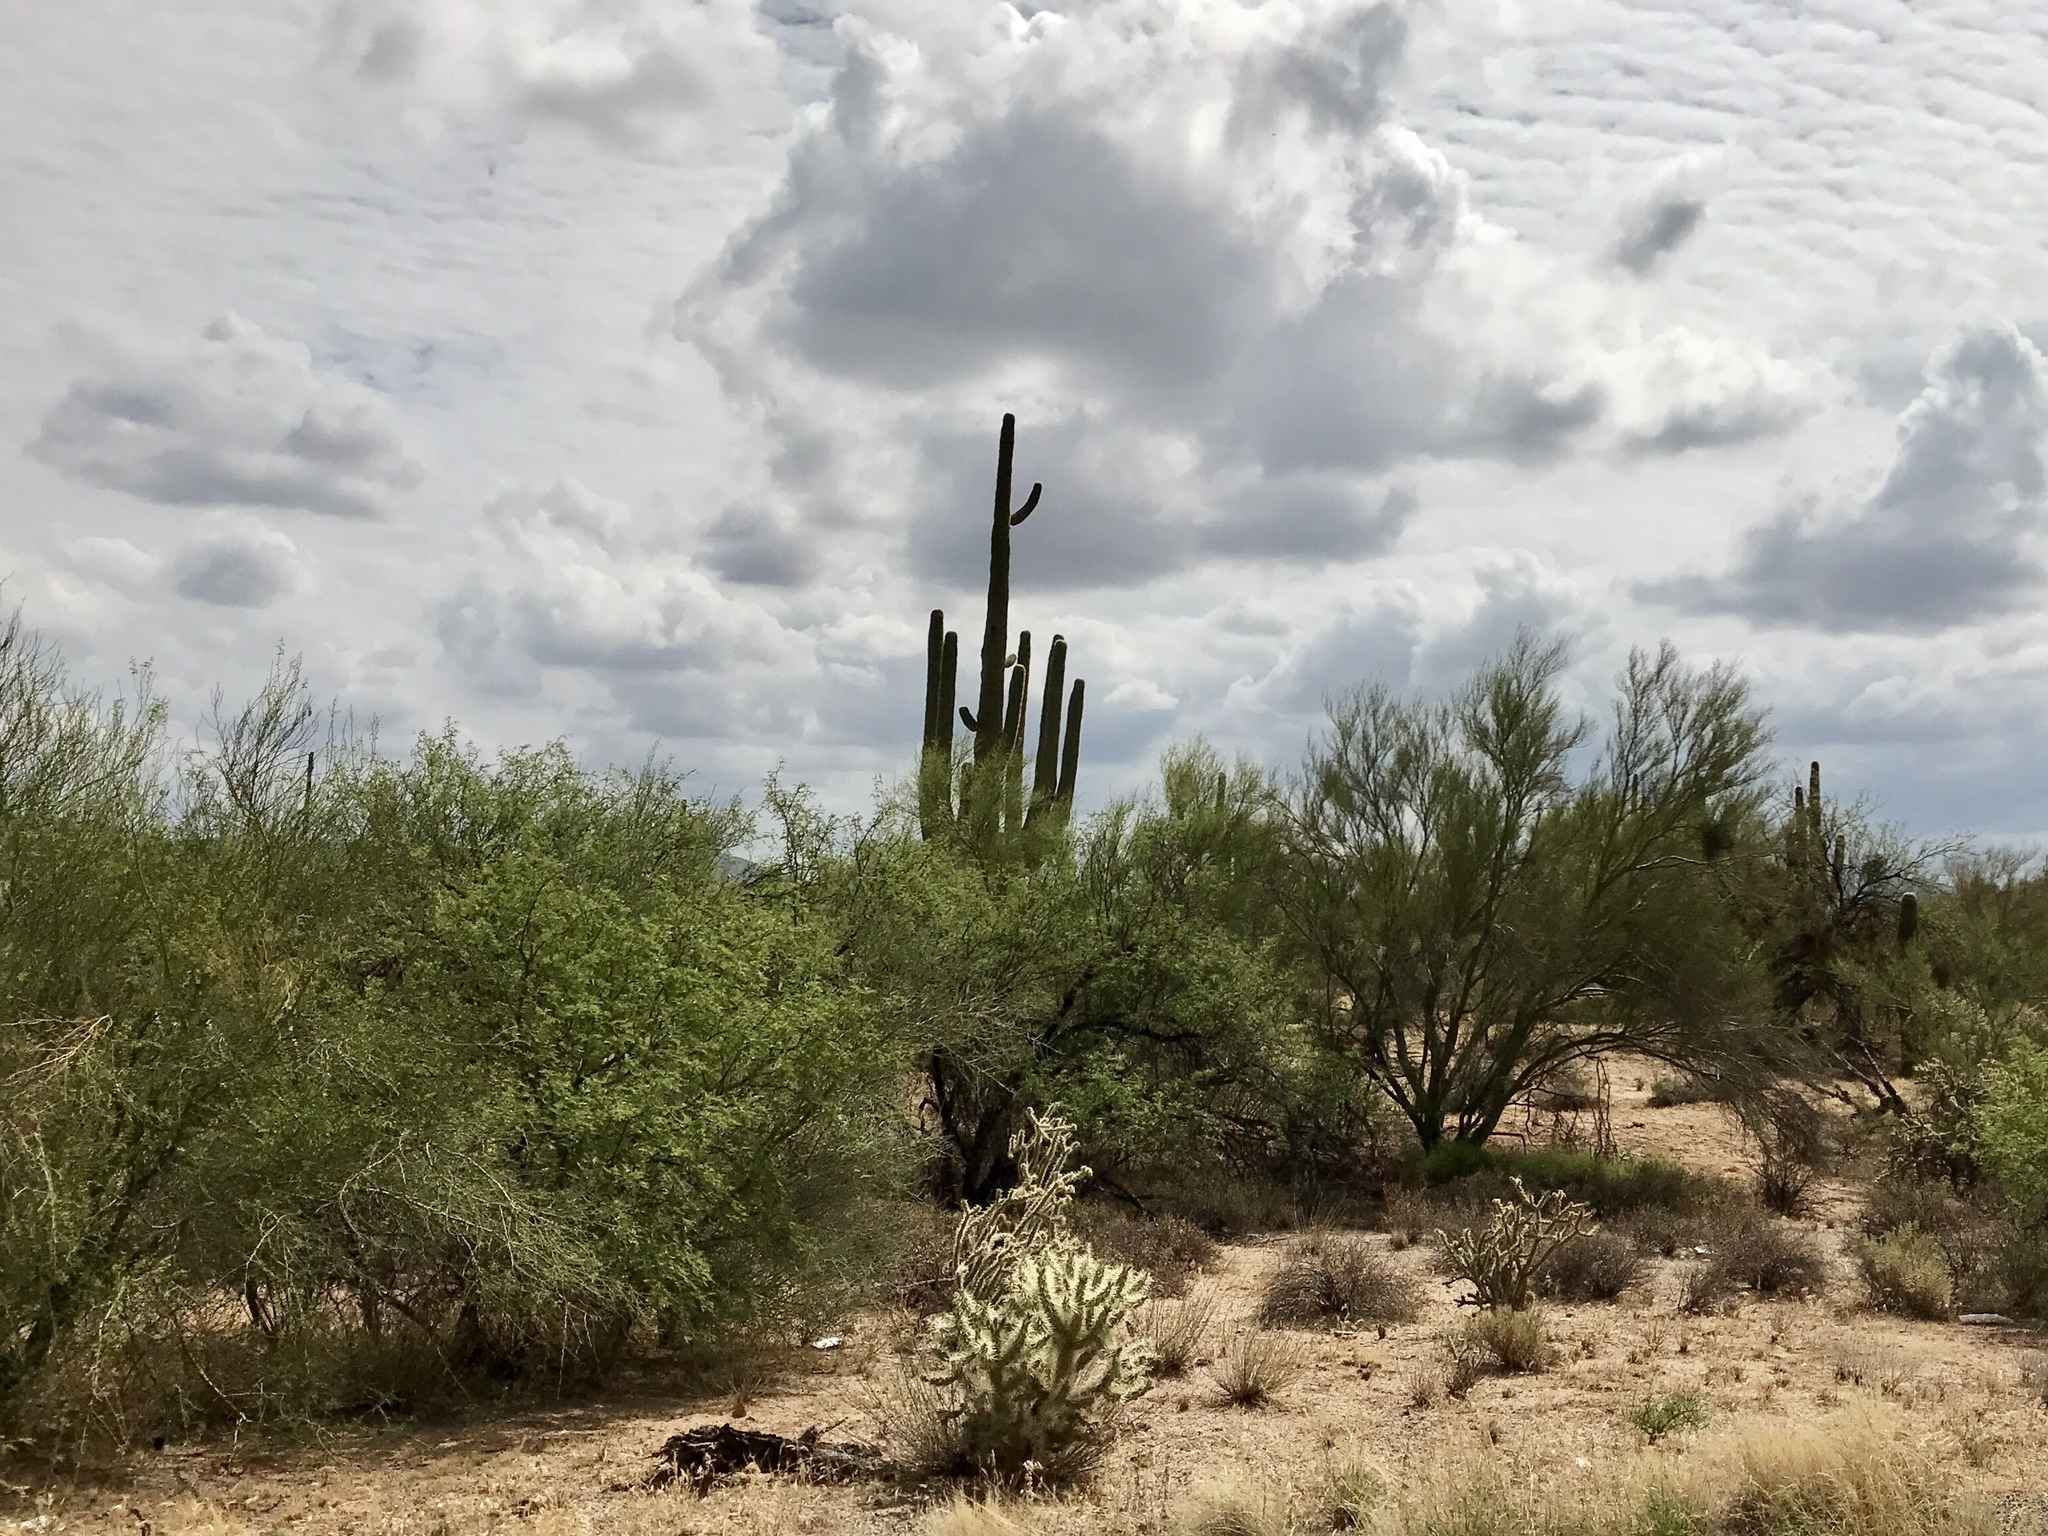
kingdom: Plantae
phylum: Tracheophyta
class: Magnoliopsida
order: Caryophyllales
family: Cactaceae
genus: Carnegiea
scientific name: Carnegiea gigantea
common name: Saguaro
